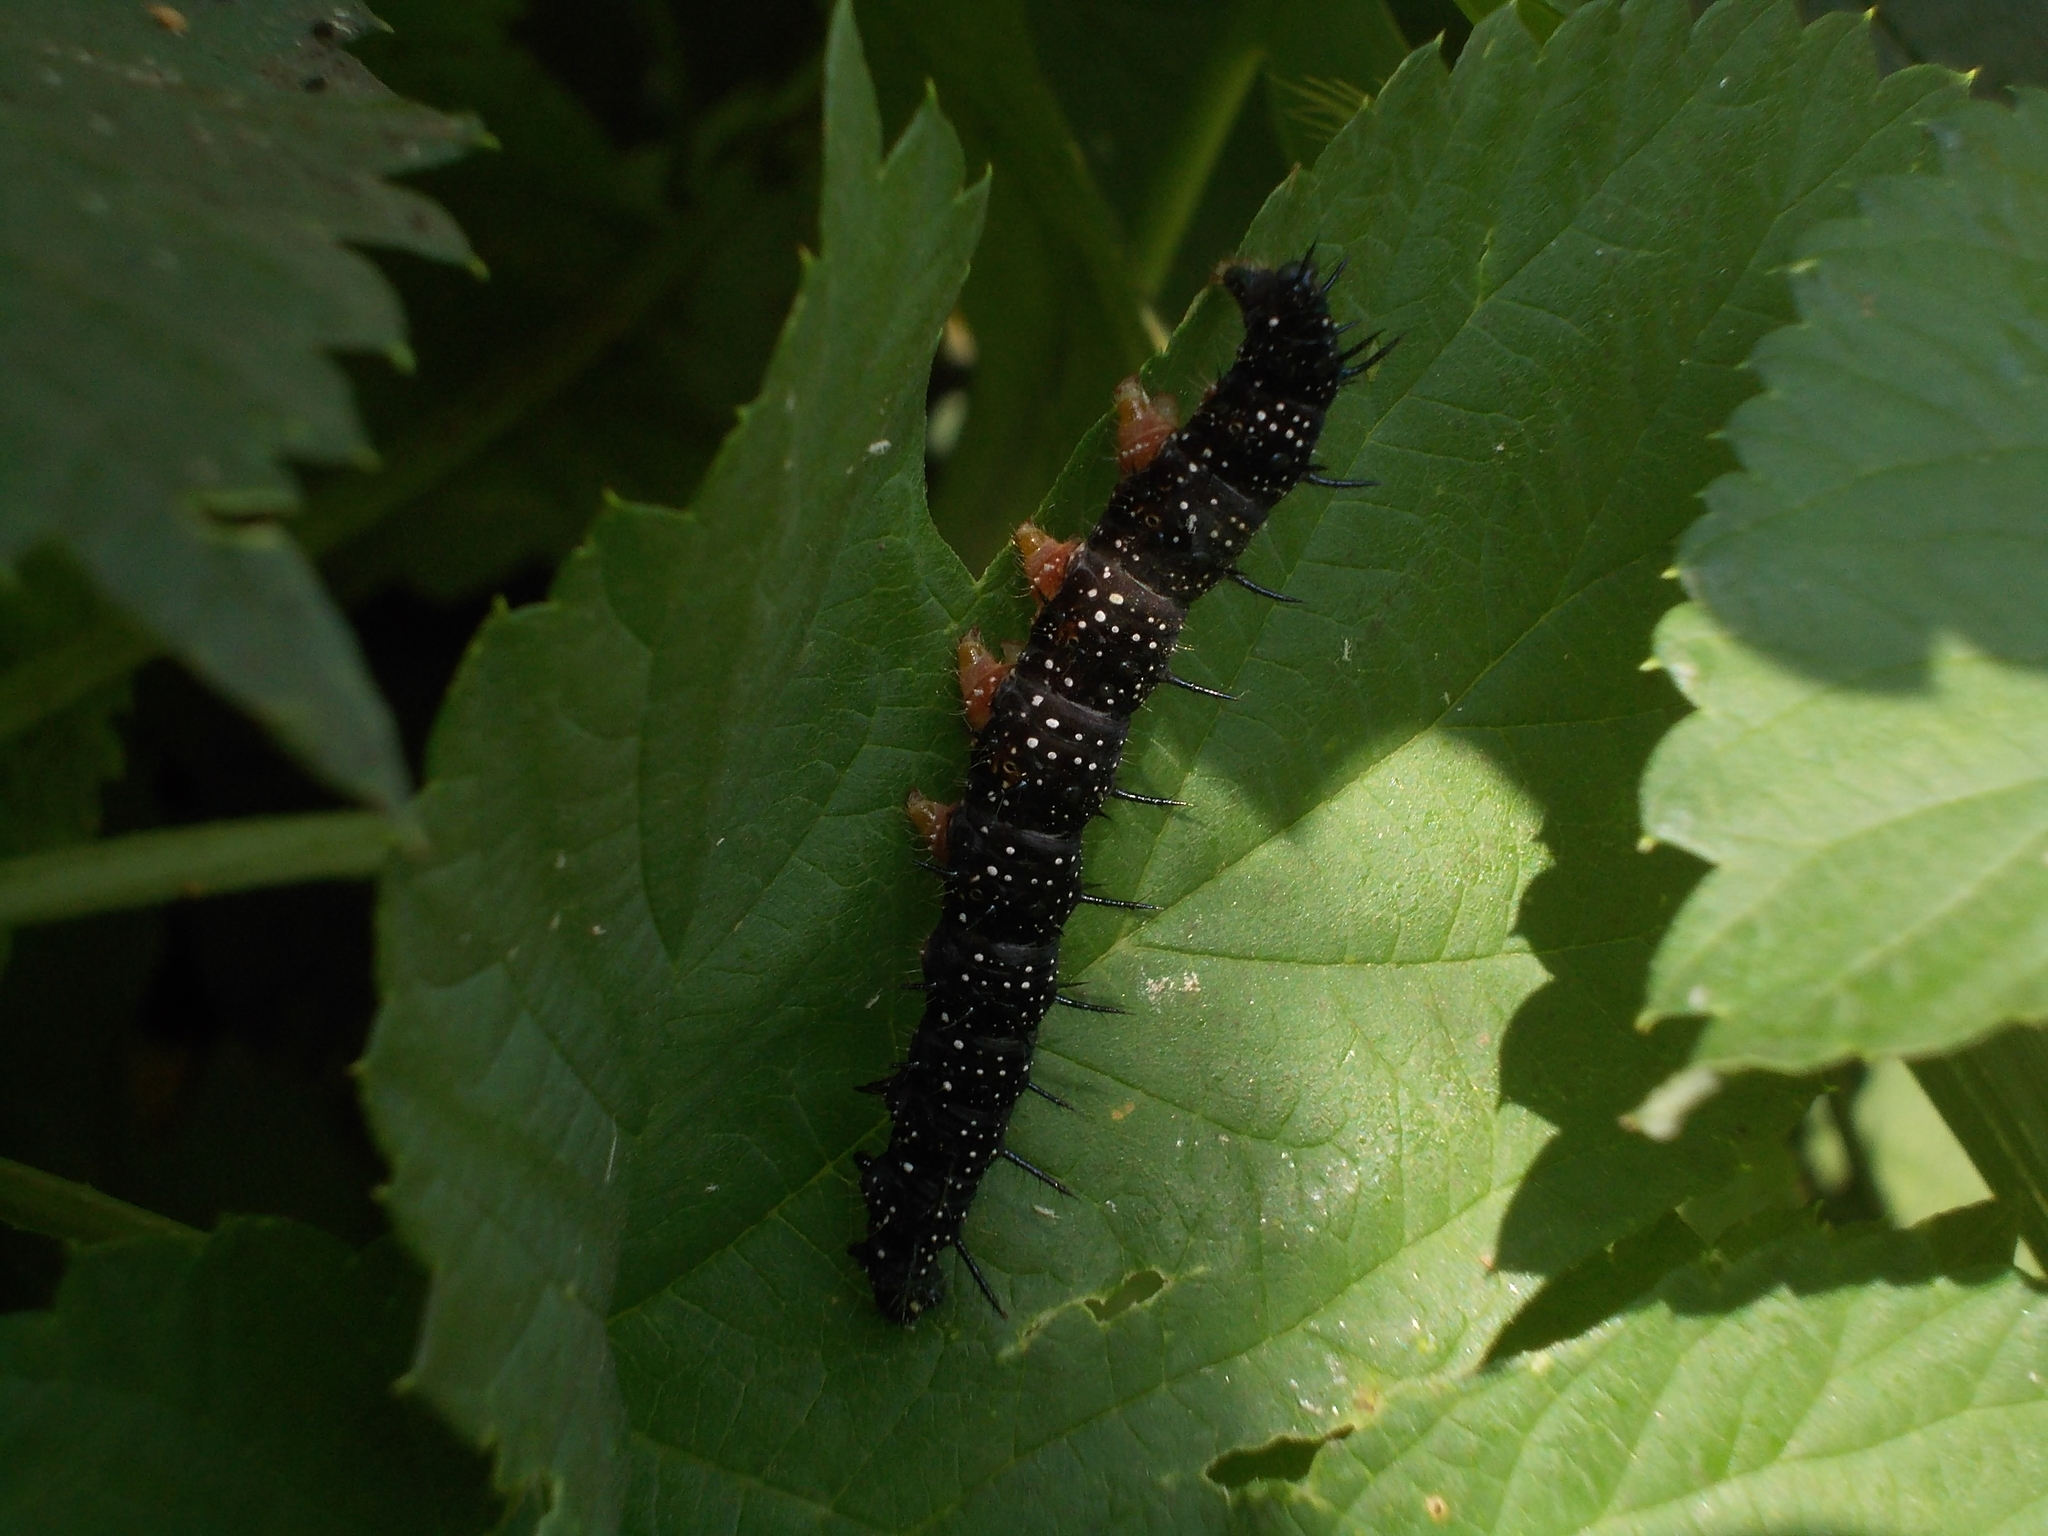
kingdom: Animalia
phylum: Arthropoda
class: Insecta
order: Lepidoptera
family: Nymphalidae
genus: Aglais
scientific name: Aglais io
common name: Peacock
